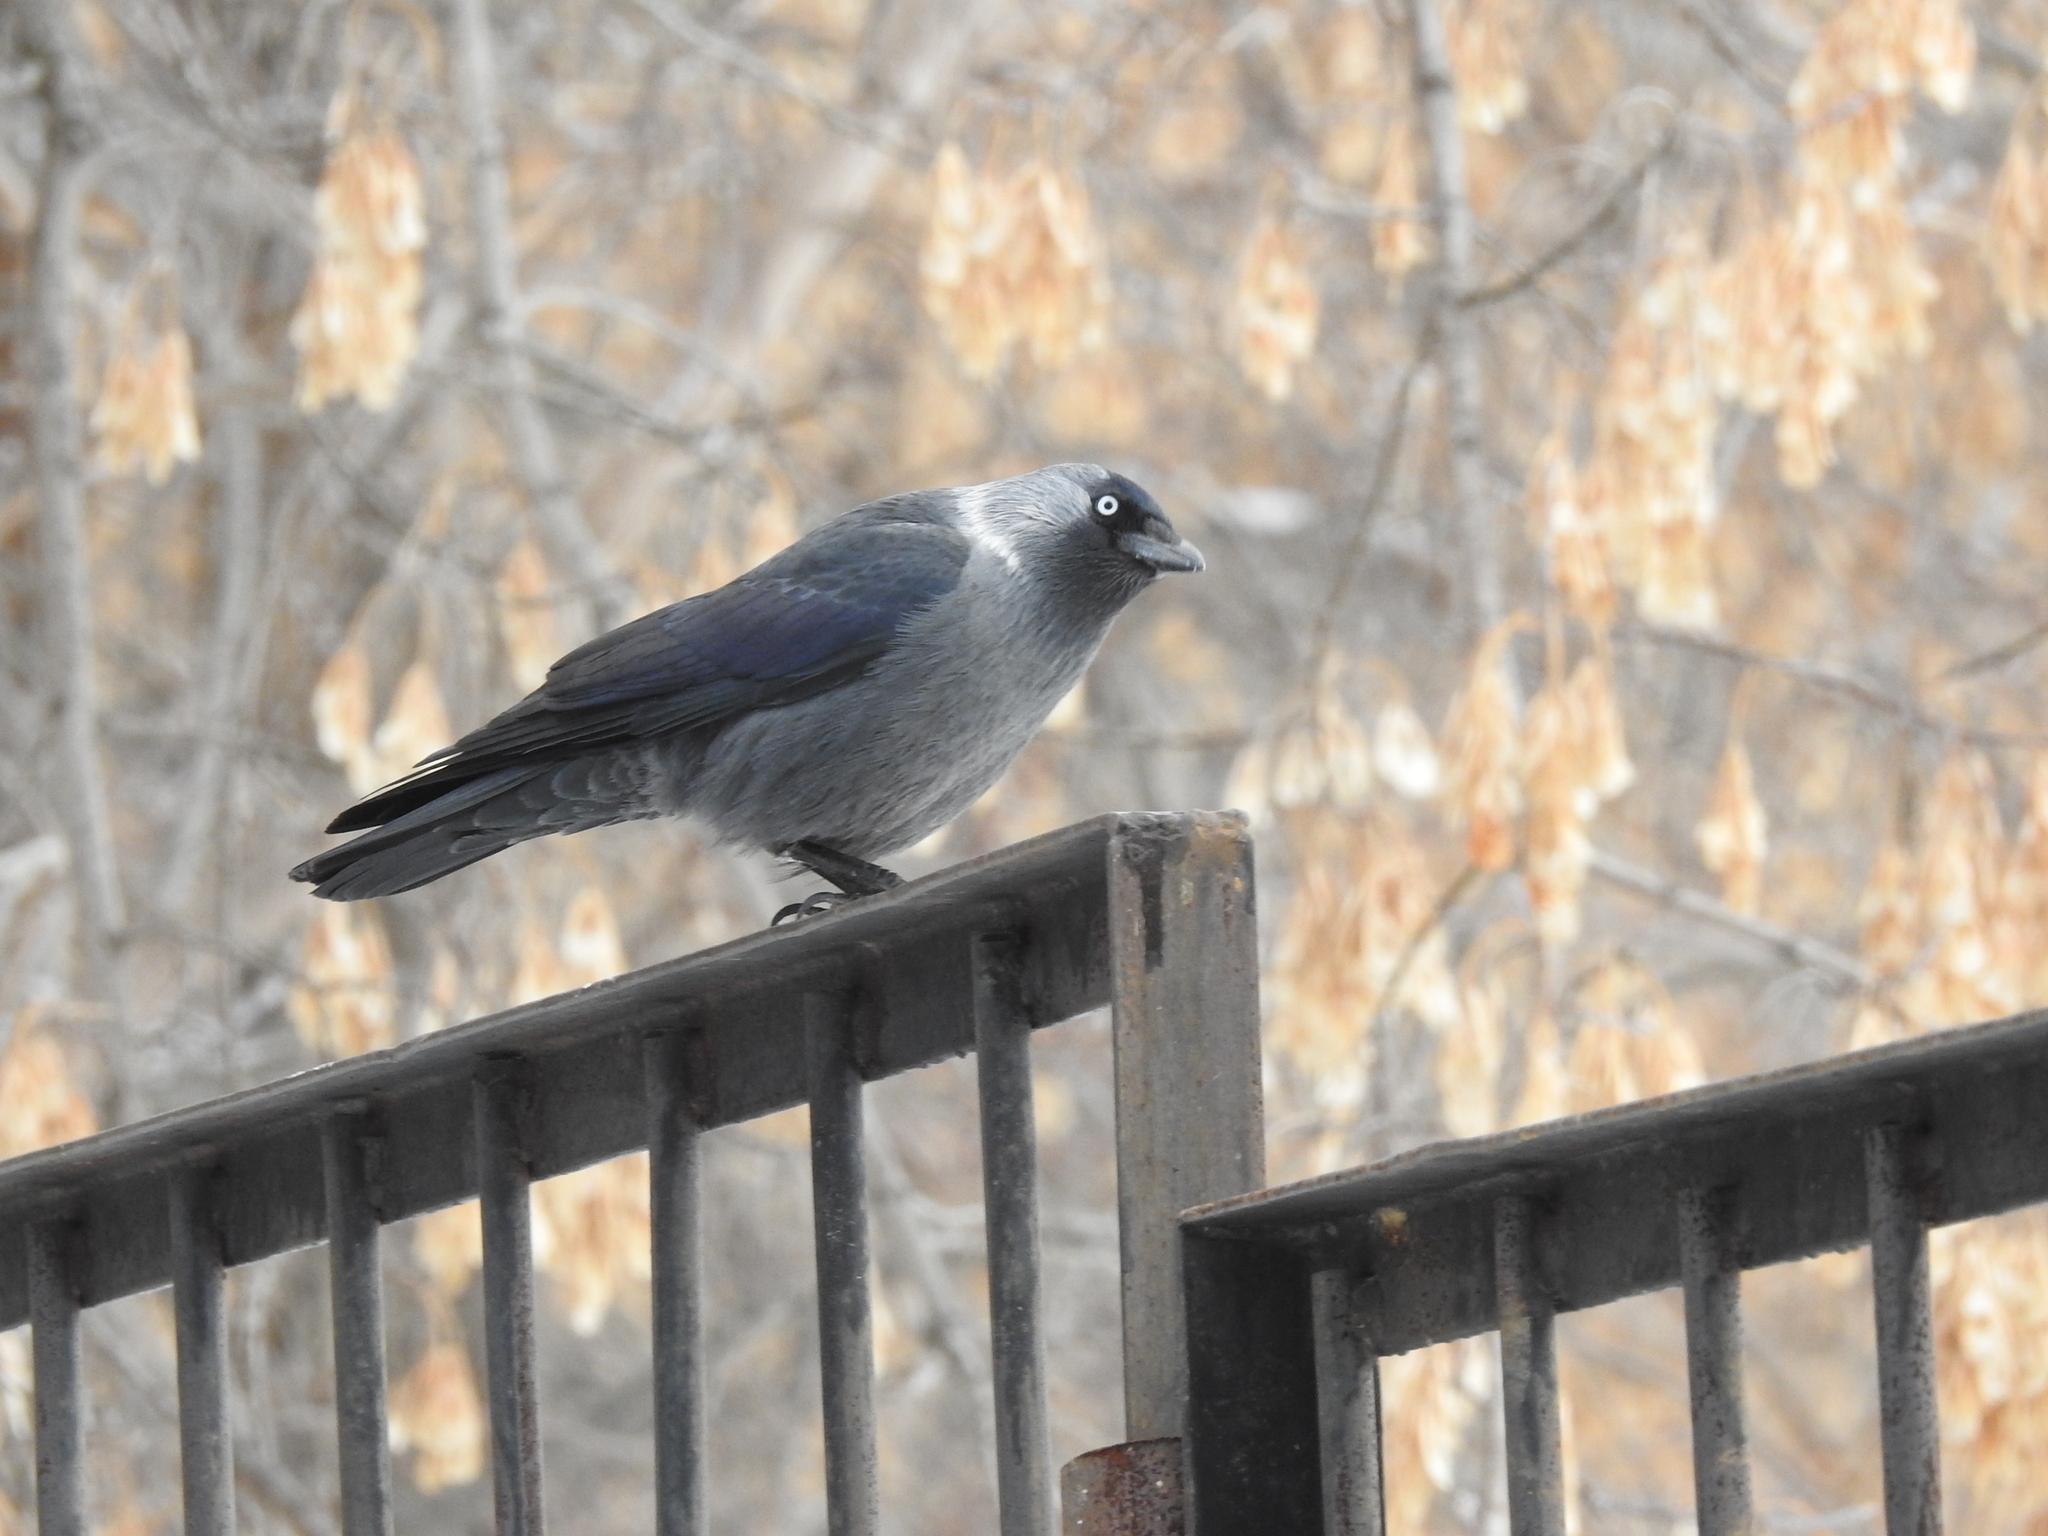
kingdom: Animalia
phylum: Chordata
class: Aves
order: Passeriformes
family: Corvidae
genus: Coloeus
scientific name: Coloeus monedula
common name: Western jackdaw
